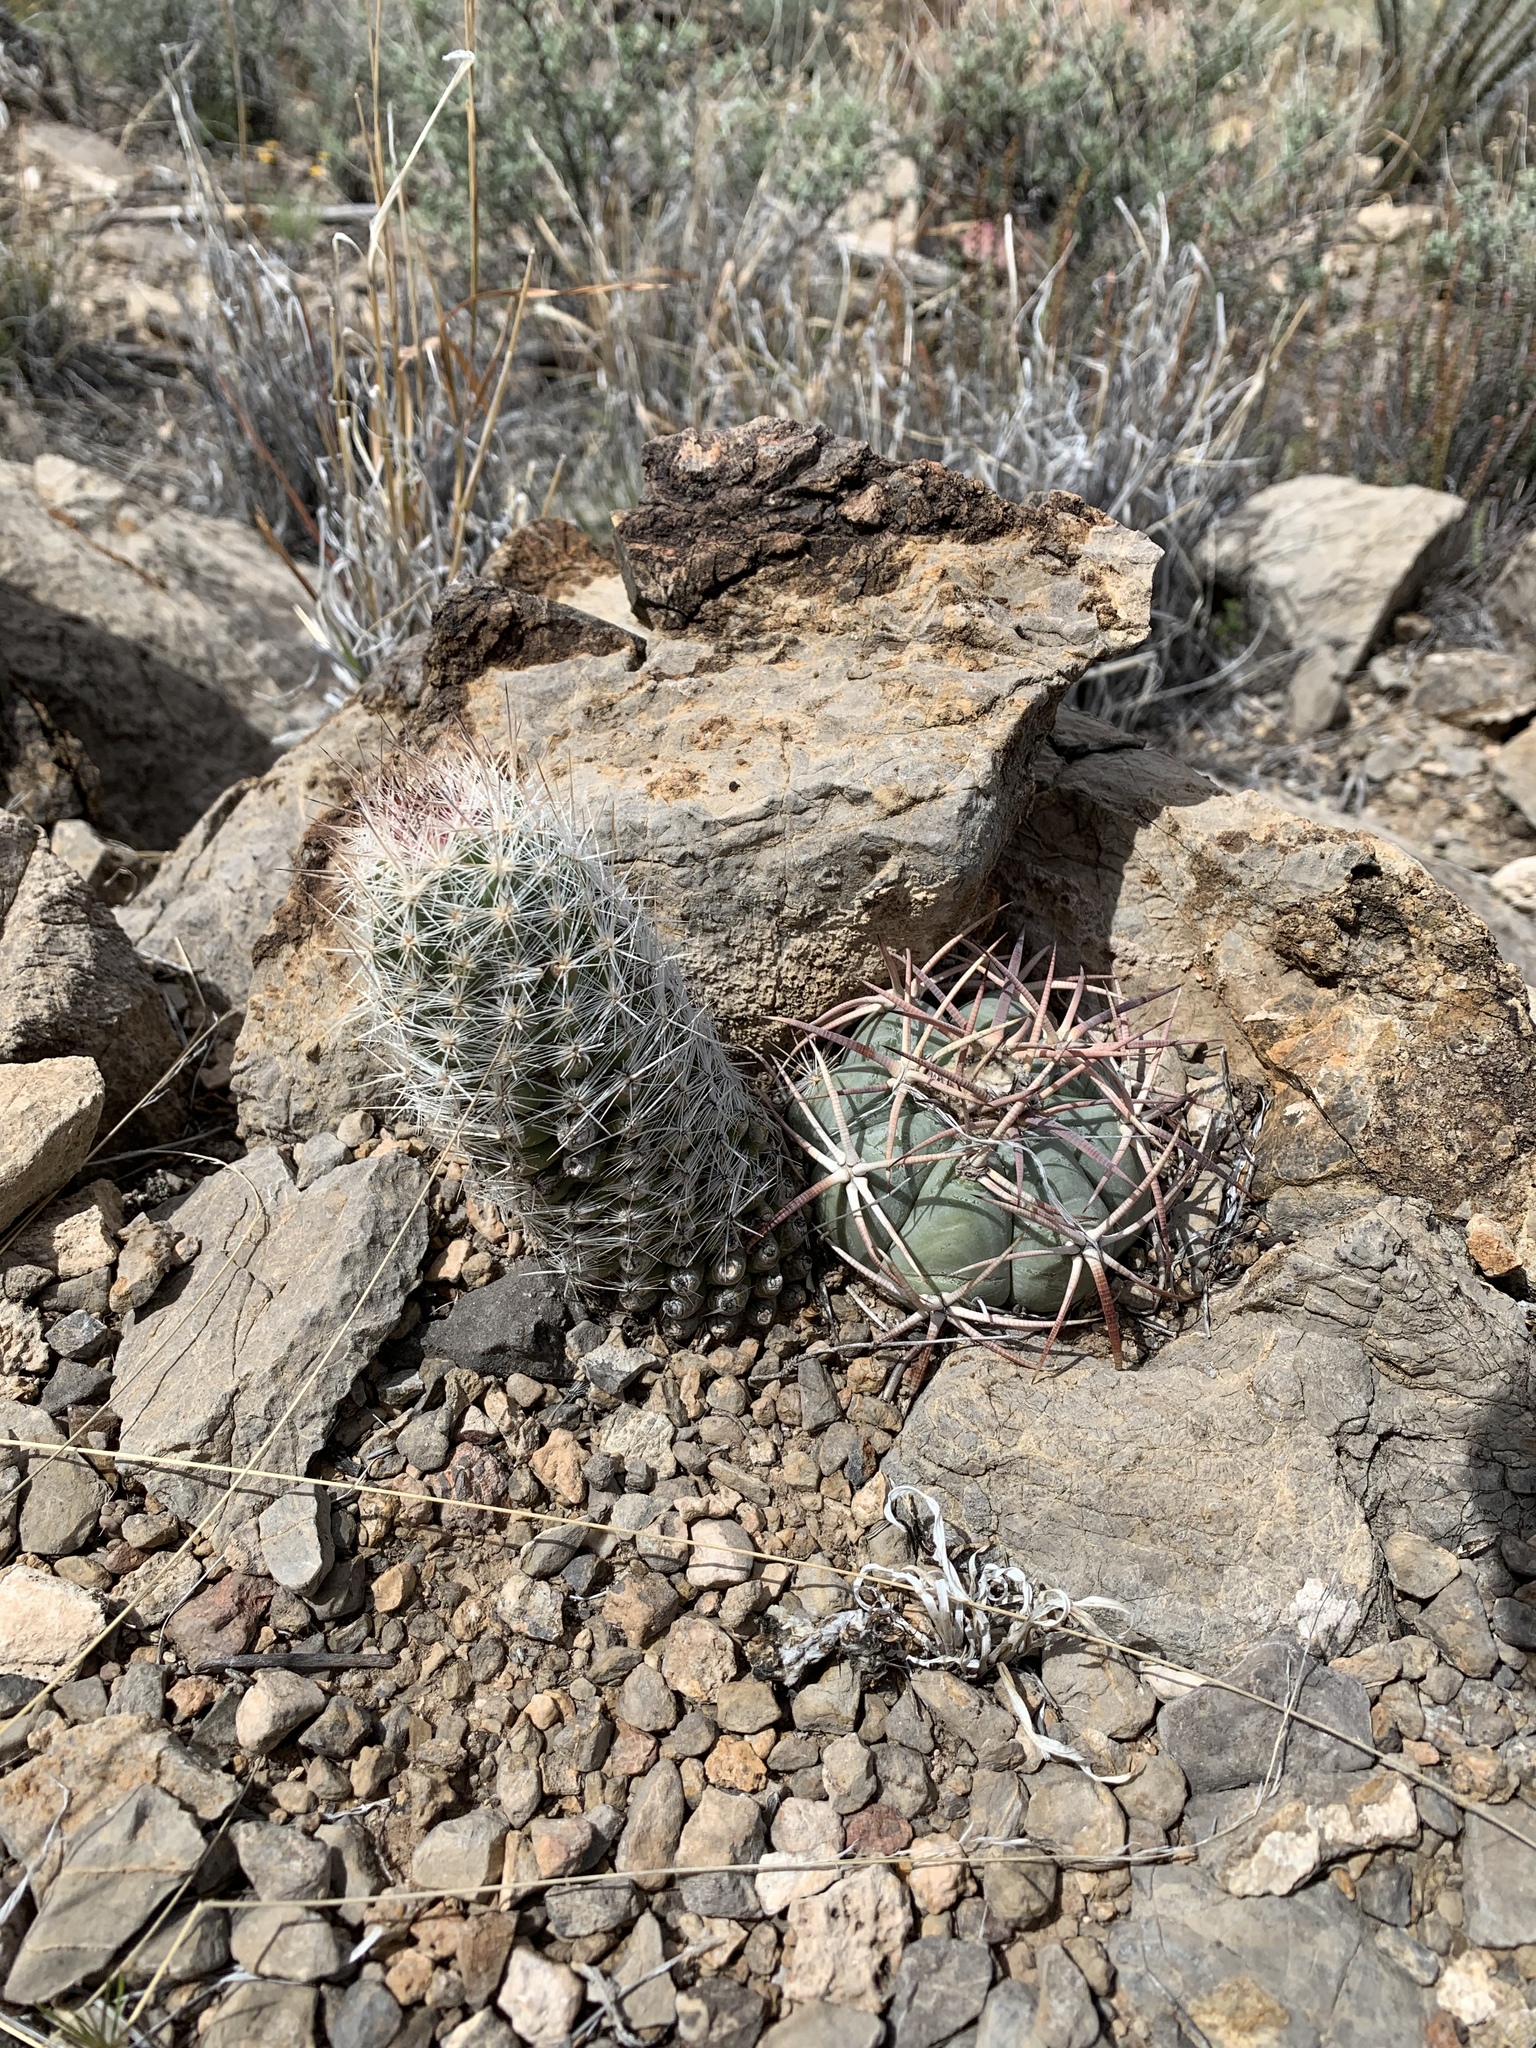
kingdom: Plantae
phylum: Tracheophyta
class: Magnoliopsida
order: Caryophyllales
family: Cactaceae
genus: Echinocactus
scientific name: Echinocactus horizonthalonius
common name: Devilshead
